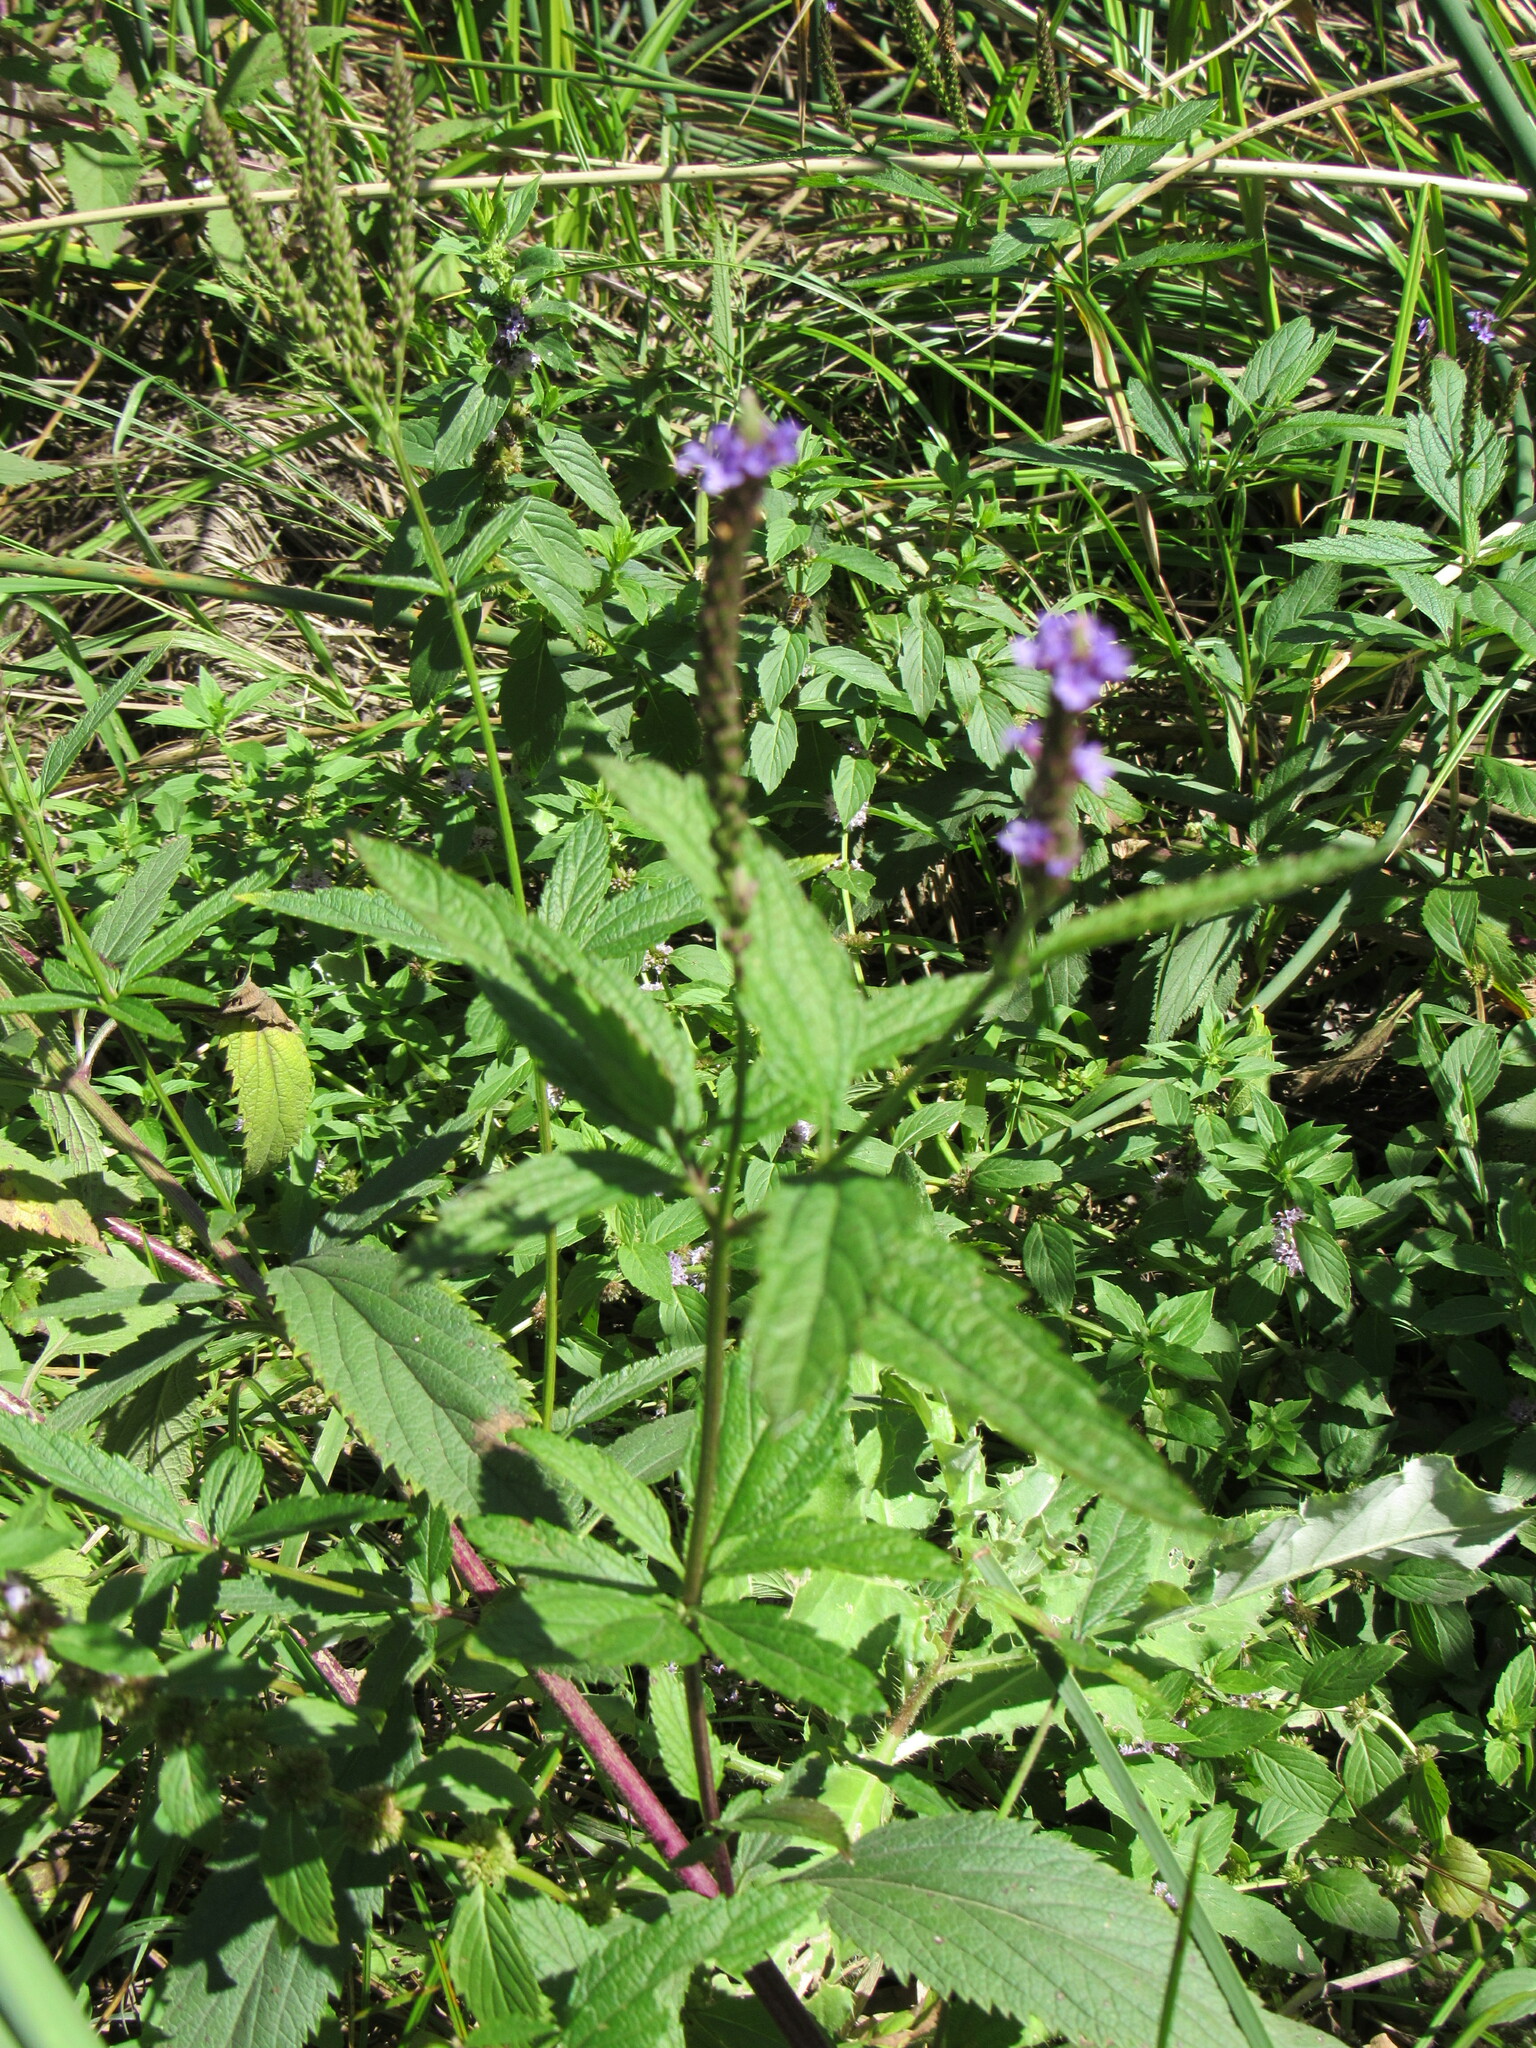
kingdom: Plantae
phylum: Tracheophyta
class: Magnoliopsida
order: Lamiales
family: Verbenaceae
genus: Verbena
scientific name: Verbena hastata
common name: American blue vervain
